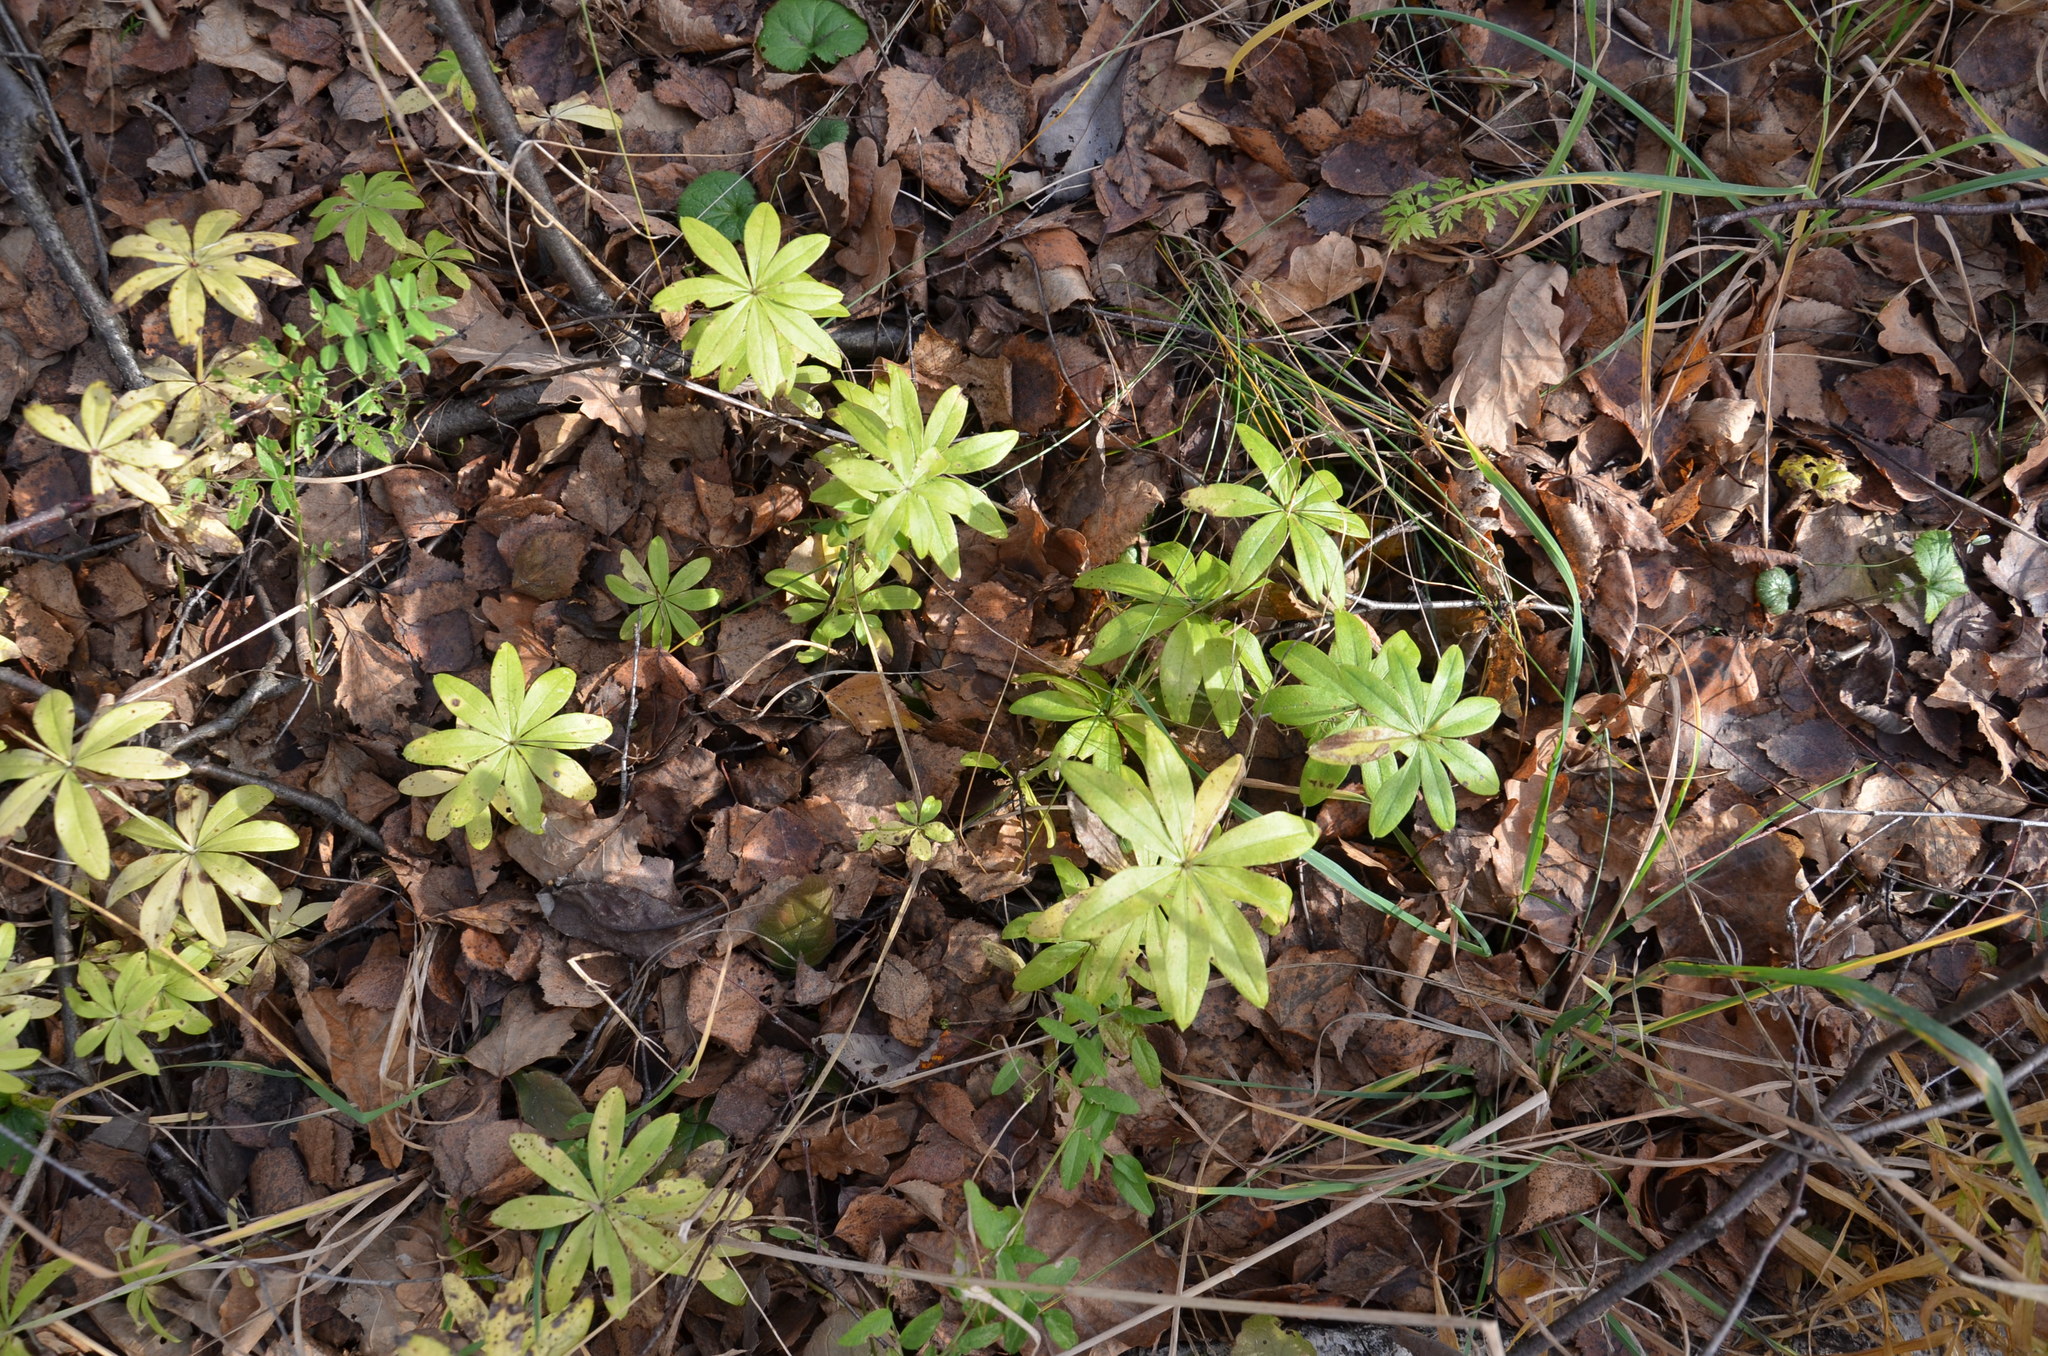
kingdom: Plantae
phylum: Tracheophyta
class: Magnoliopsida
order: Gentianales
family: Rubiaceae
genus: Galium
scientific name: Galium odoratum
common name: Sweet woodruff
